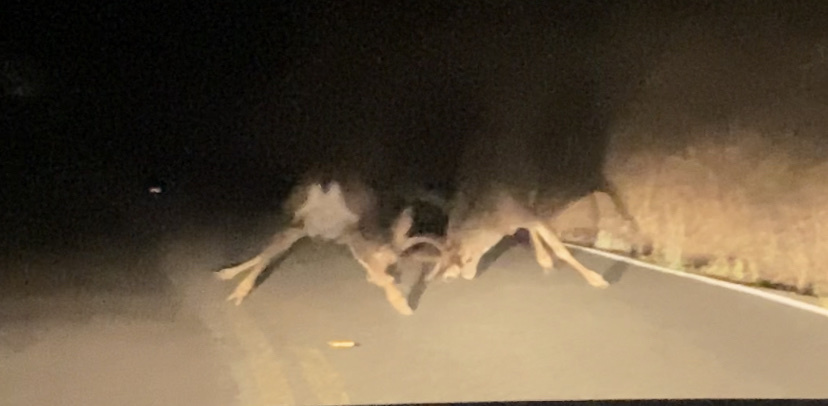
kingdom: Animalia
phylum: Chordata
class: Mammalia
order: Artiodactyla
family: Cervidae
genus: Odocoileus
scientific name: Odocoileus hemionus
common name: Mule deer
